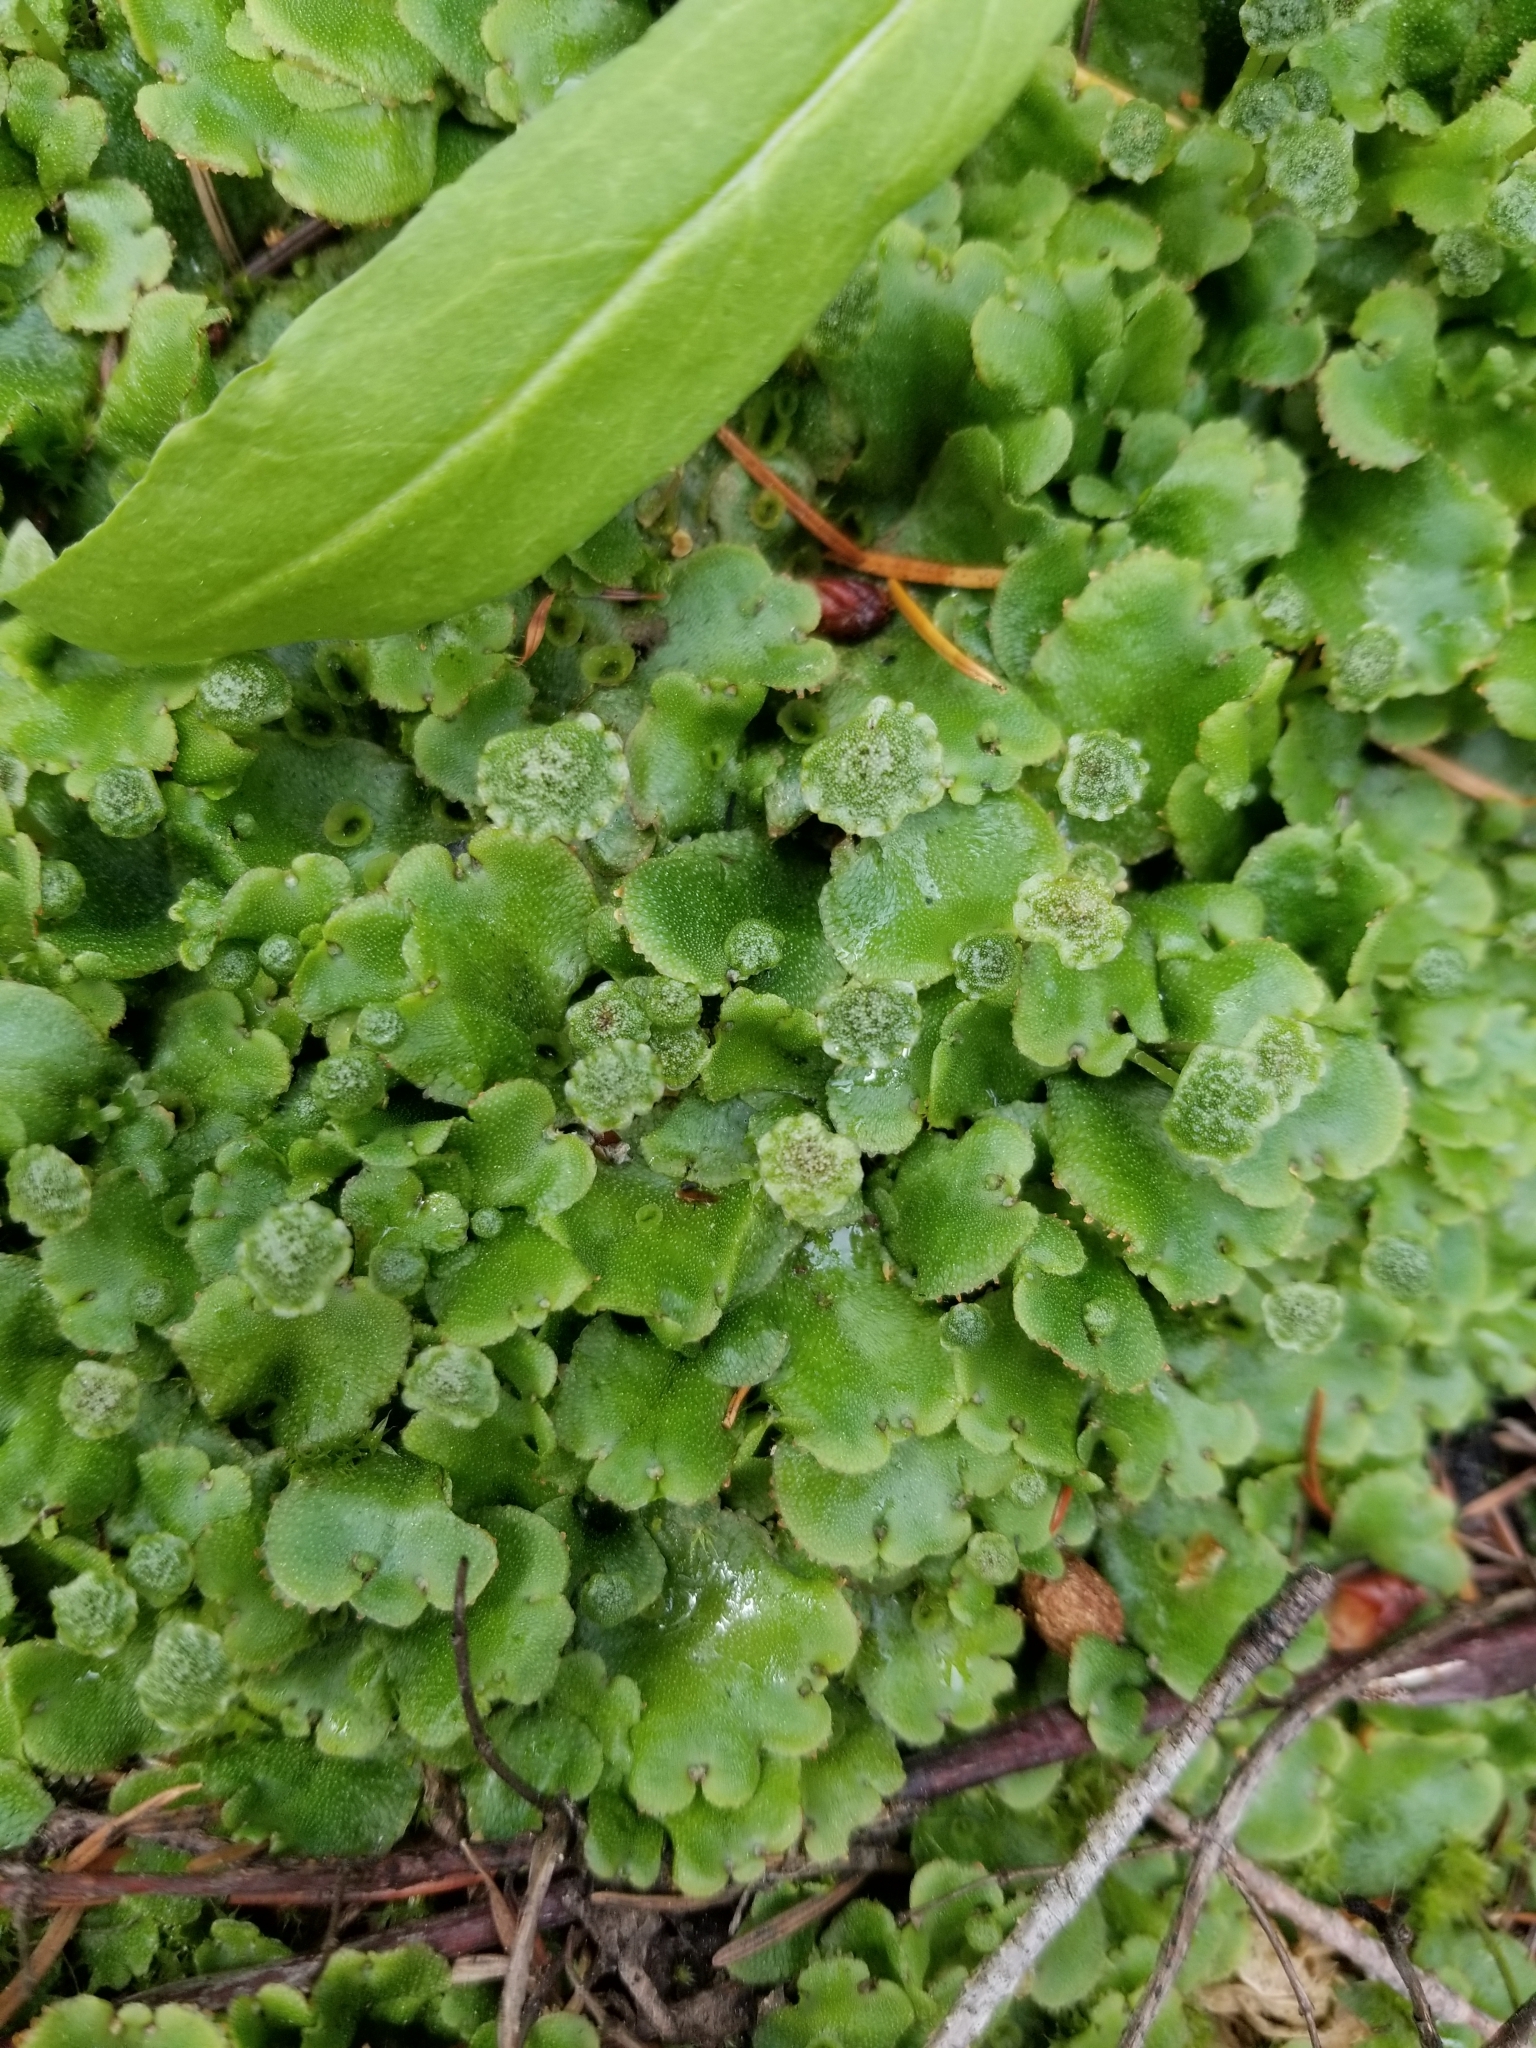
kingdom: Plantae
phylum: Marchantiophyta
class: Marchantiopsida
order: Marchantiales
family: Marchantiaceae
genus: Marchantia
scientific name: Marchantia polymorpha
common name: Common liverwort
